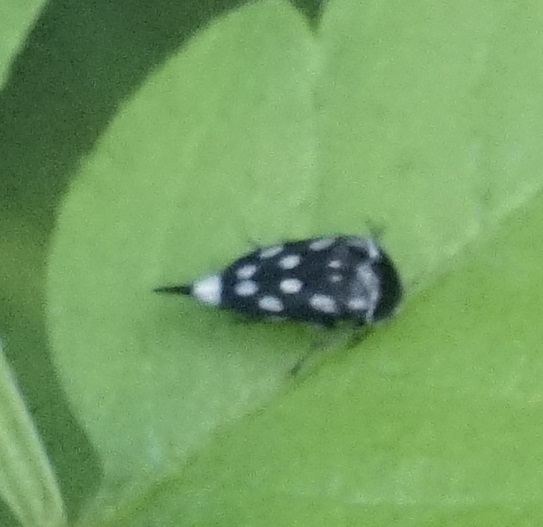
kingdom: Animalia
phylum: Arthropoda
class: Insecta
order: Coleoptera
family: Mordellidae
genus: Mordella
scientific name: Mordella
